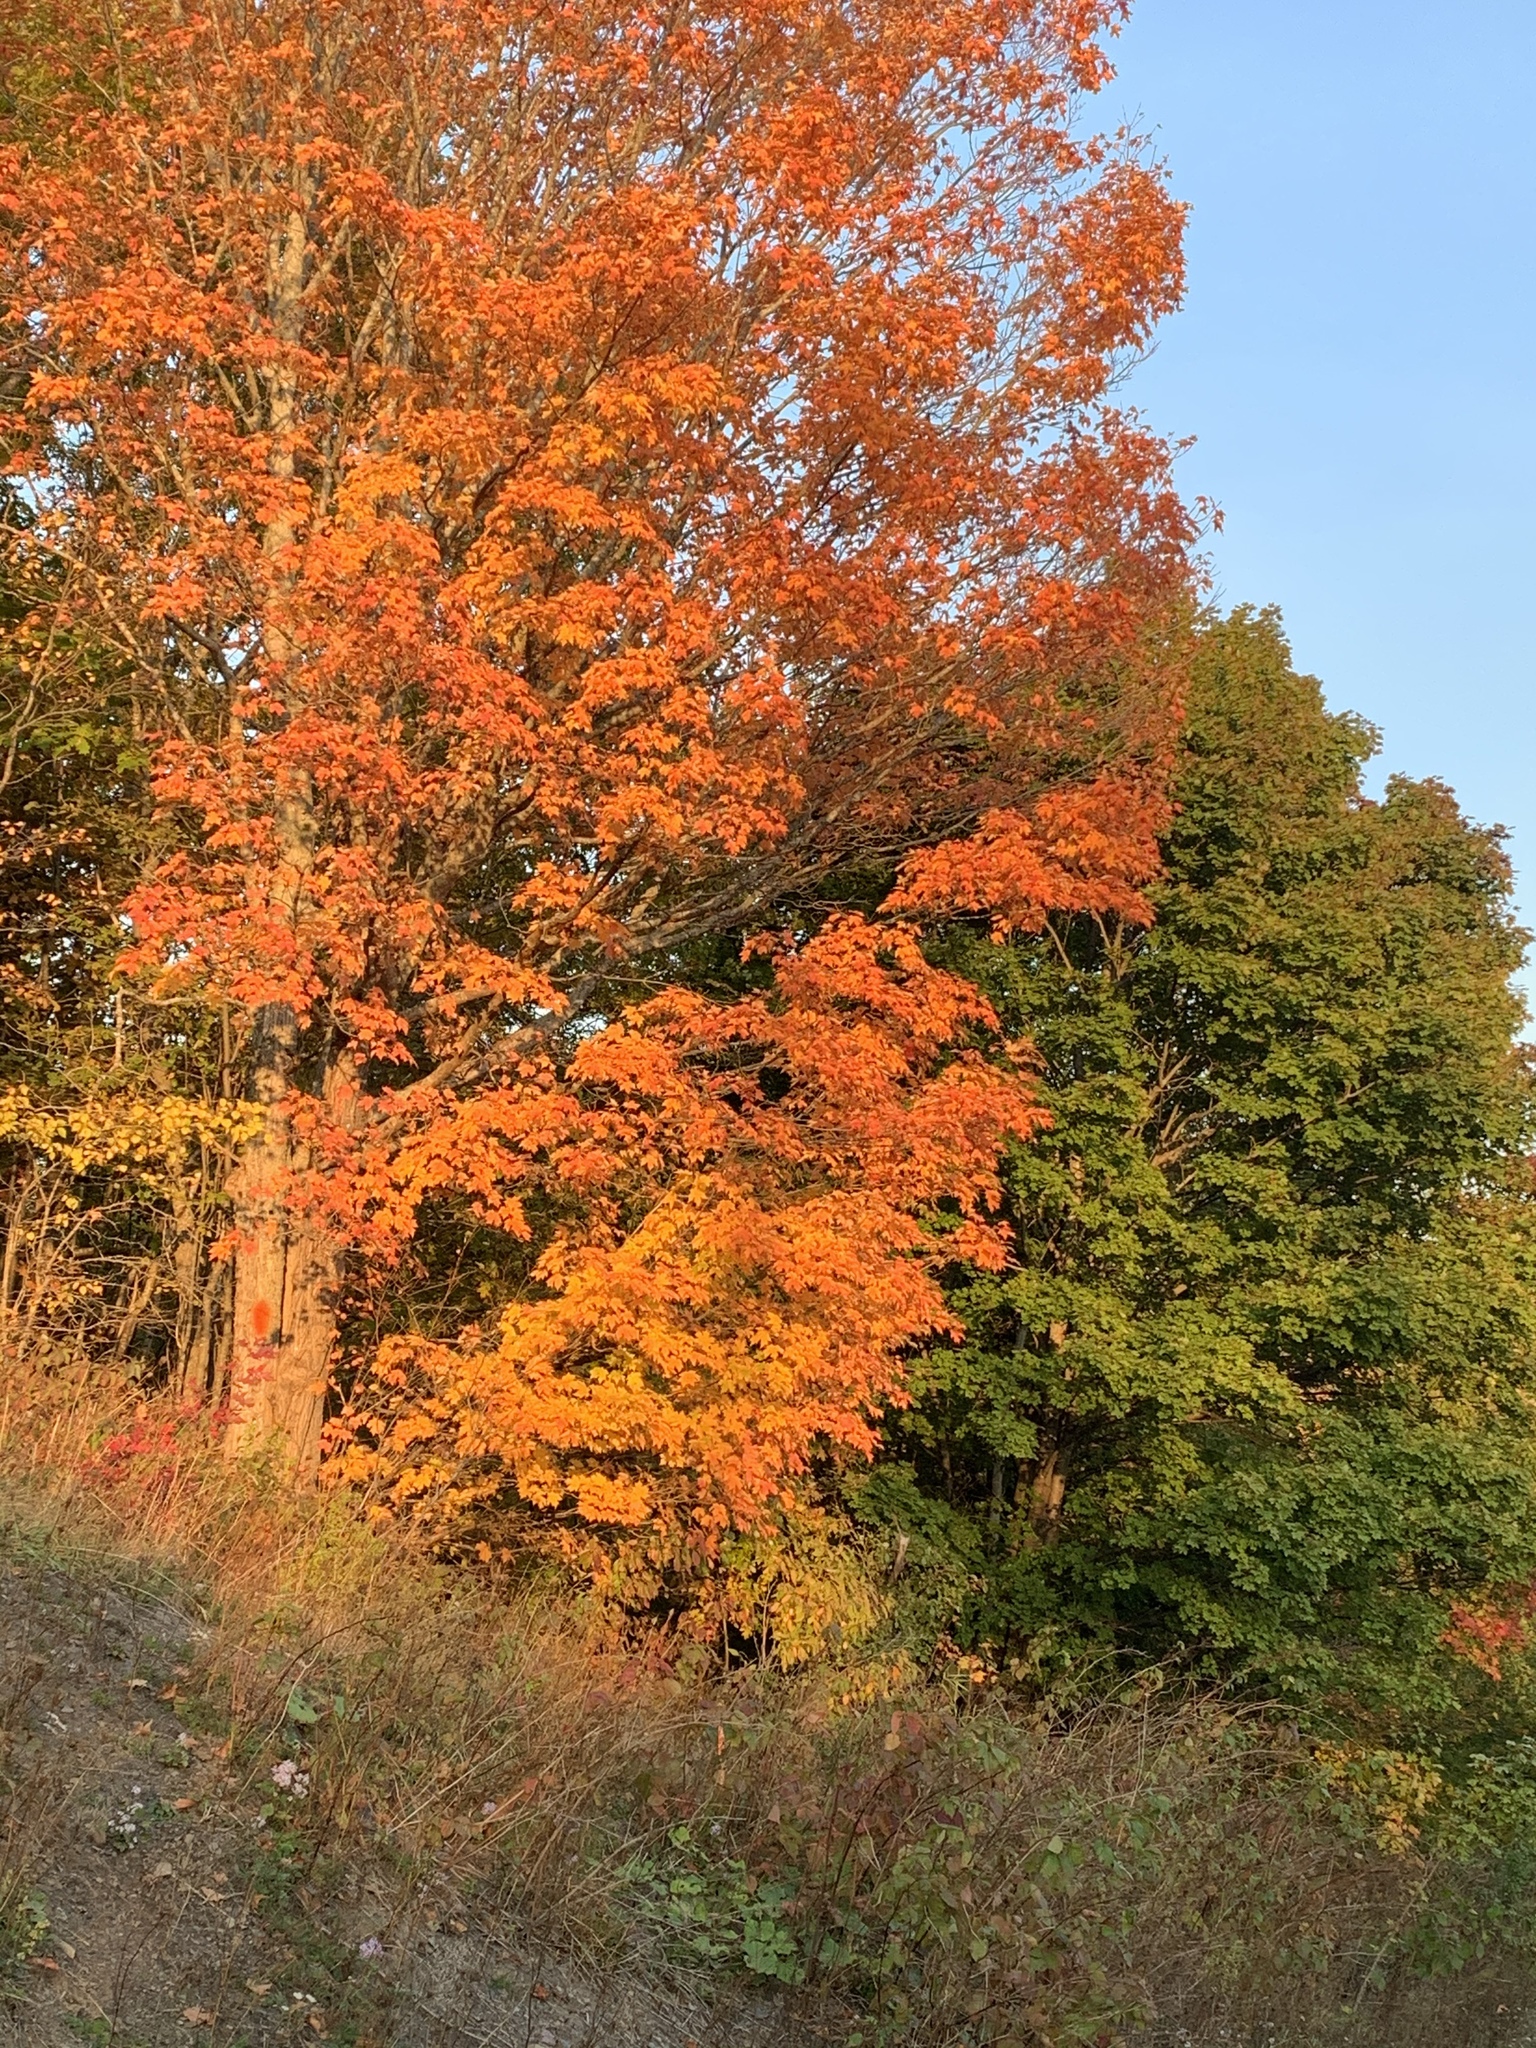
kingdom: Plantae
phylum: Tracheophyta
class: Magnoliopsida
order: Sapindales
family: Sapindaceae
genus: Acer
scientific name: Acer saccharum
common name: Sugar maple
